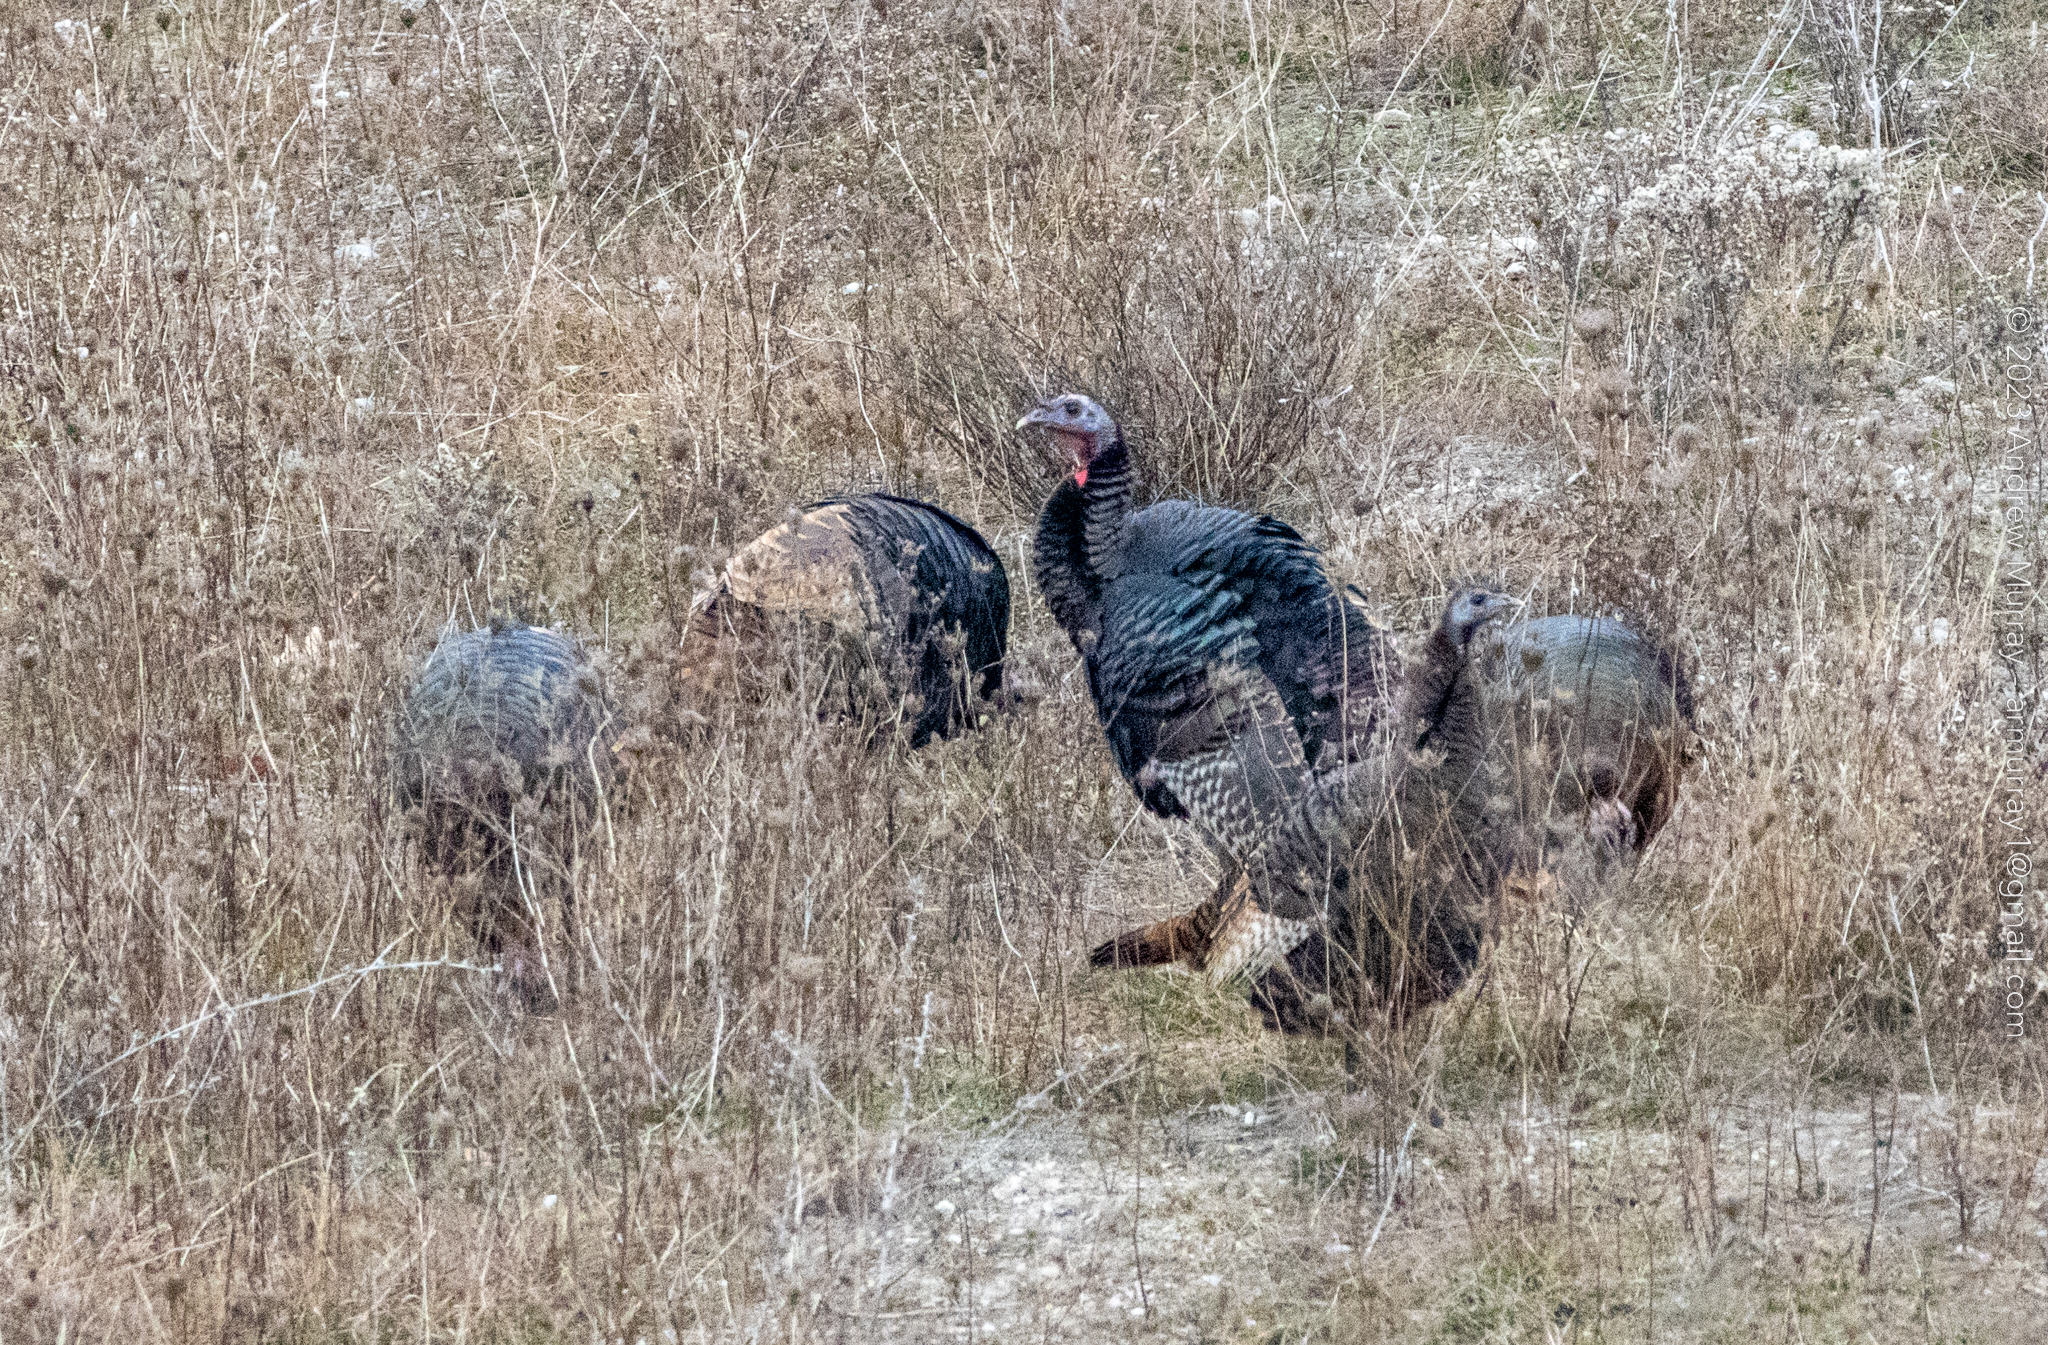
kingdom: Animalia
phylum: Chordata
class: Aves
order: Galliformes
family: Phasianidae
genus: Meleagris
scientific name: Meleagris gallopavo
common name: Wild turkey
